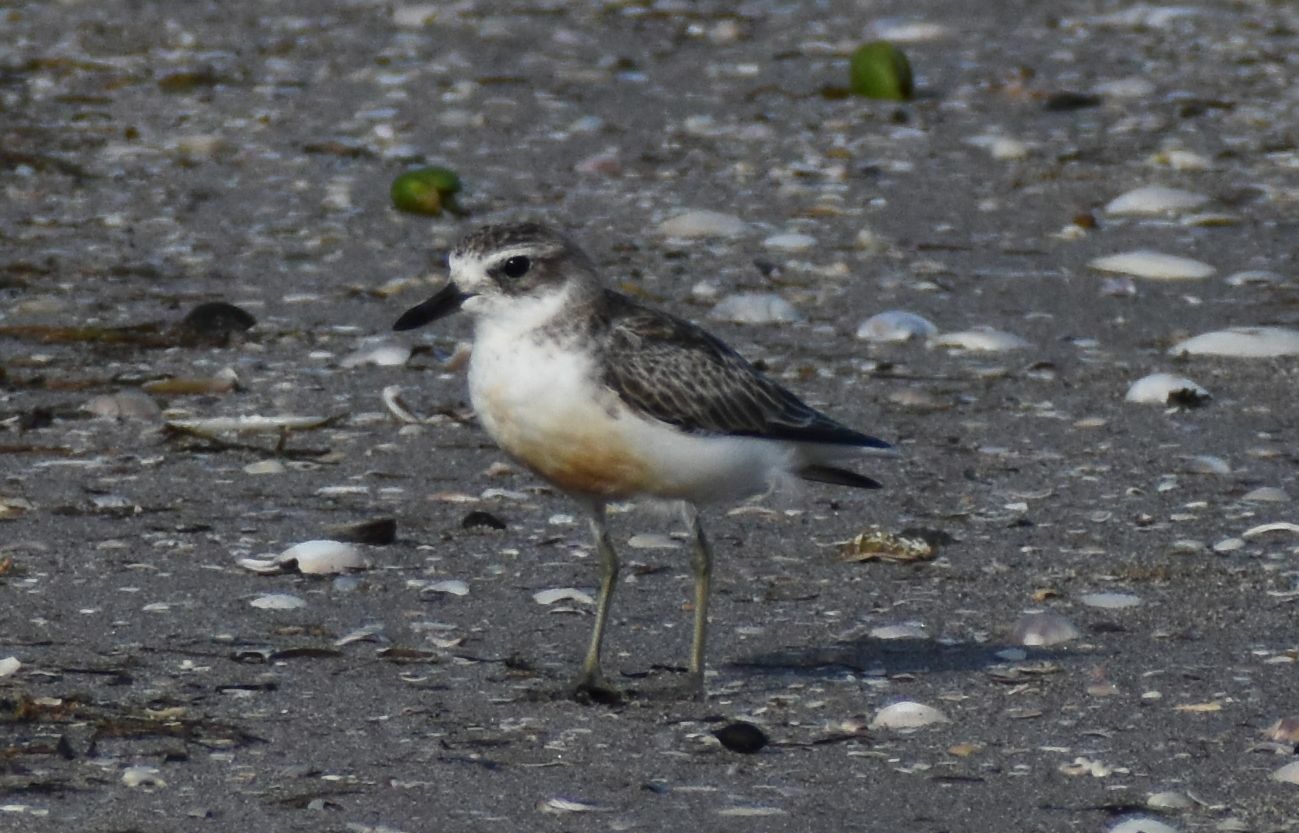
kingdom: Animalia
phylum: Chordata
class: Aves
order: Charadriiformes
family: Charadriidae
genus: Anarhynchus
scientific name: Anarhynchus
